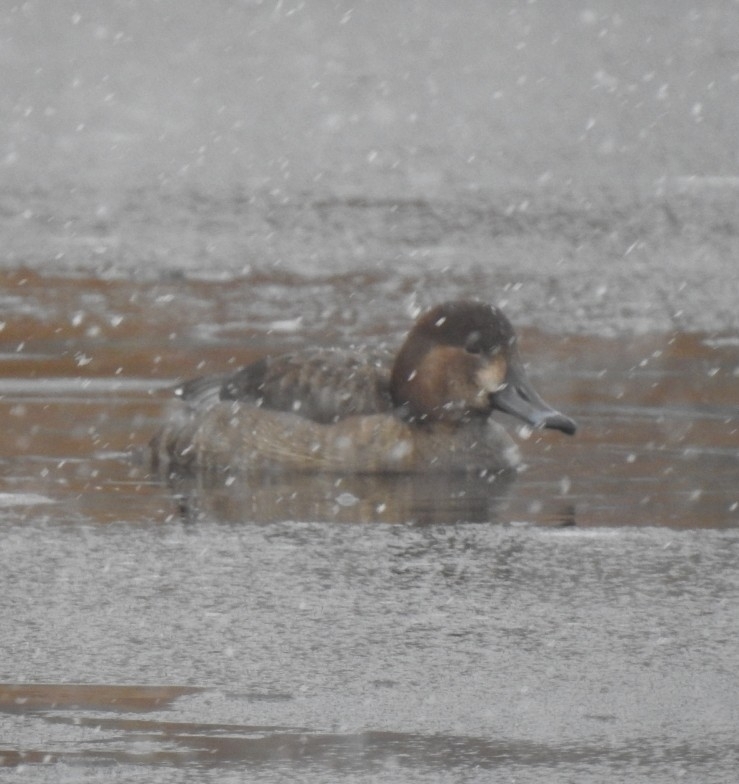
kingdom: Animalia
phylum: Chordata
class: Aves
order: Anseriformes
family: Anatidae
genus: Aythya
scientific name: Aythya americana
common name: Redhead
